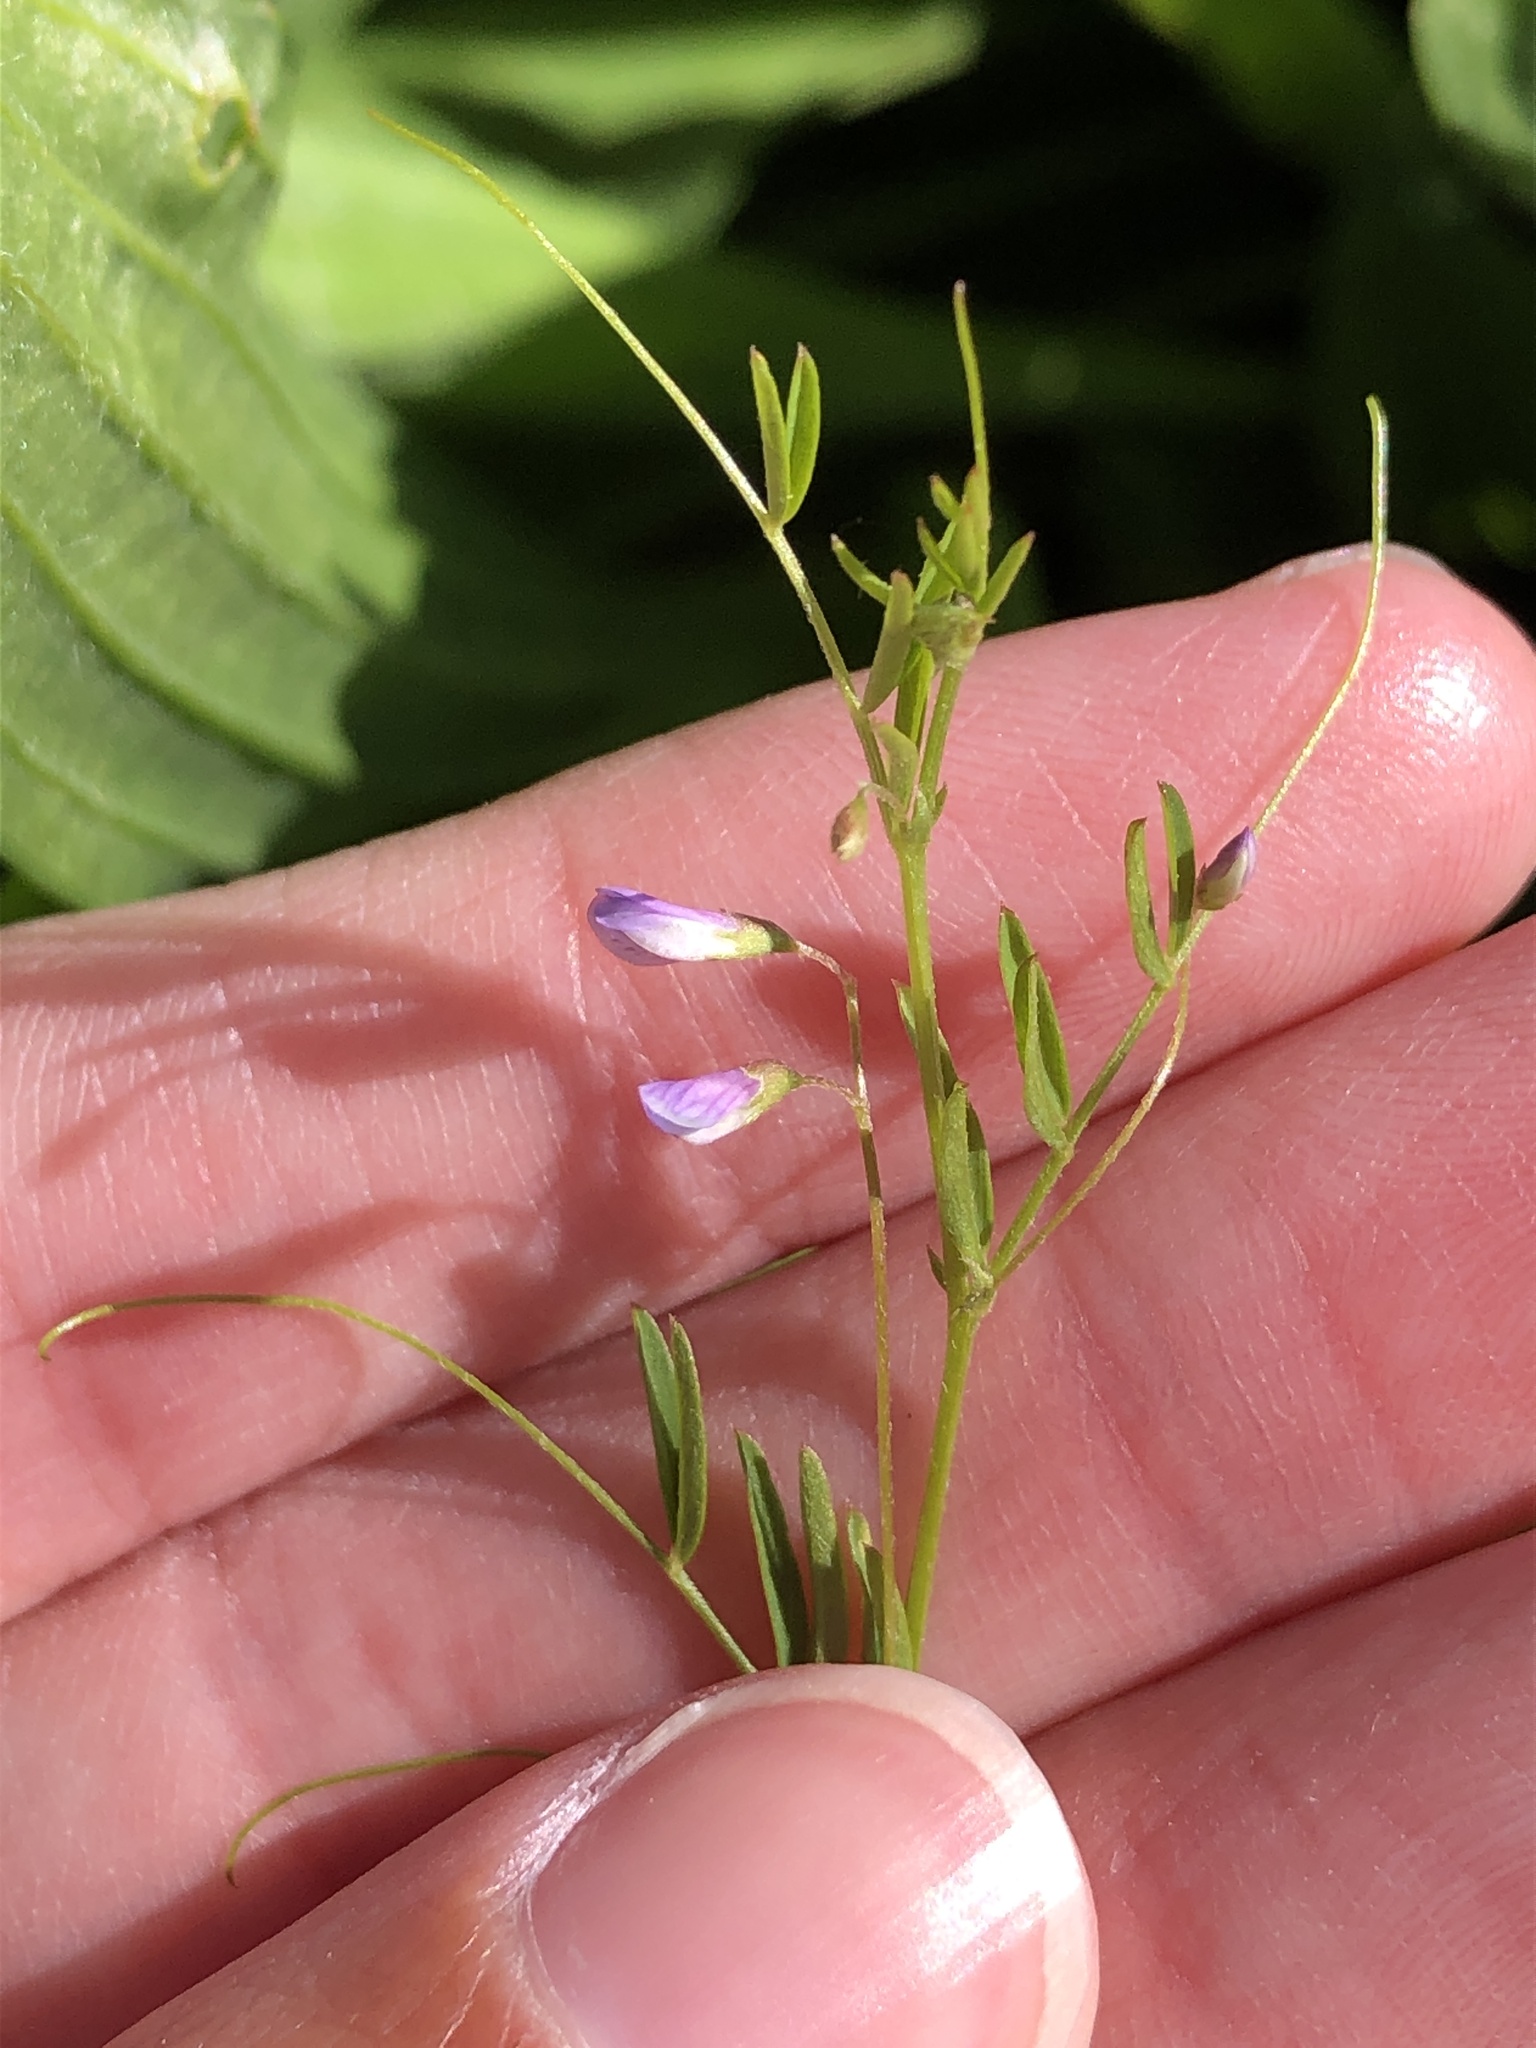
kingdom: Plantae
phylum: Tracheophyta
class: Magnoliopsida
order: Fabales
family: Fabaceae
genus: Vicia
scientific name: Vicia tetrasperma
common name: Smooth tare
